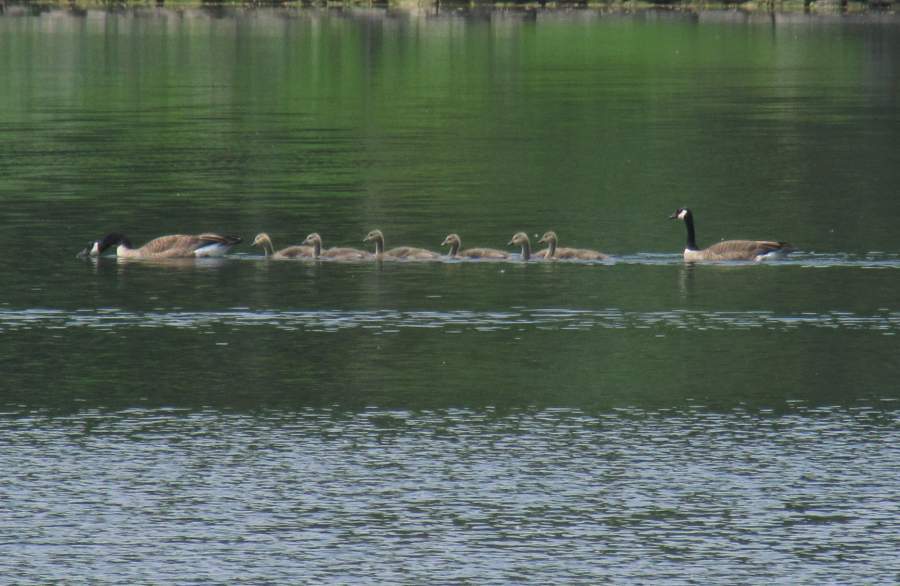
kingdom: Animalia
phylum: Chordata
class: Aves
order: Anseriformes
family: Anatidae
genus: Branta
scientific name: Branta canadensis
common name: Canada goose
